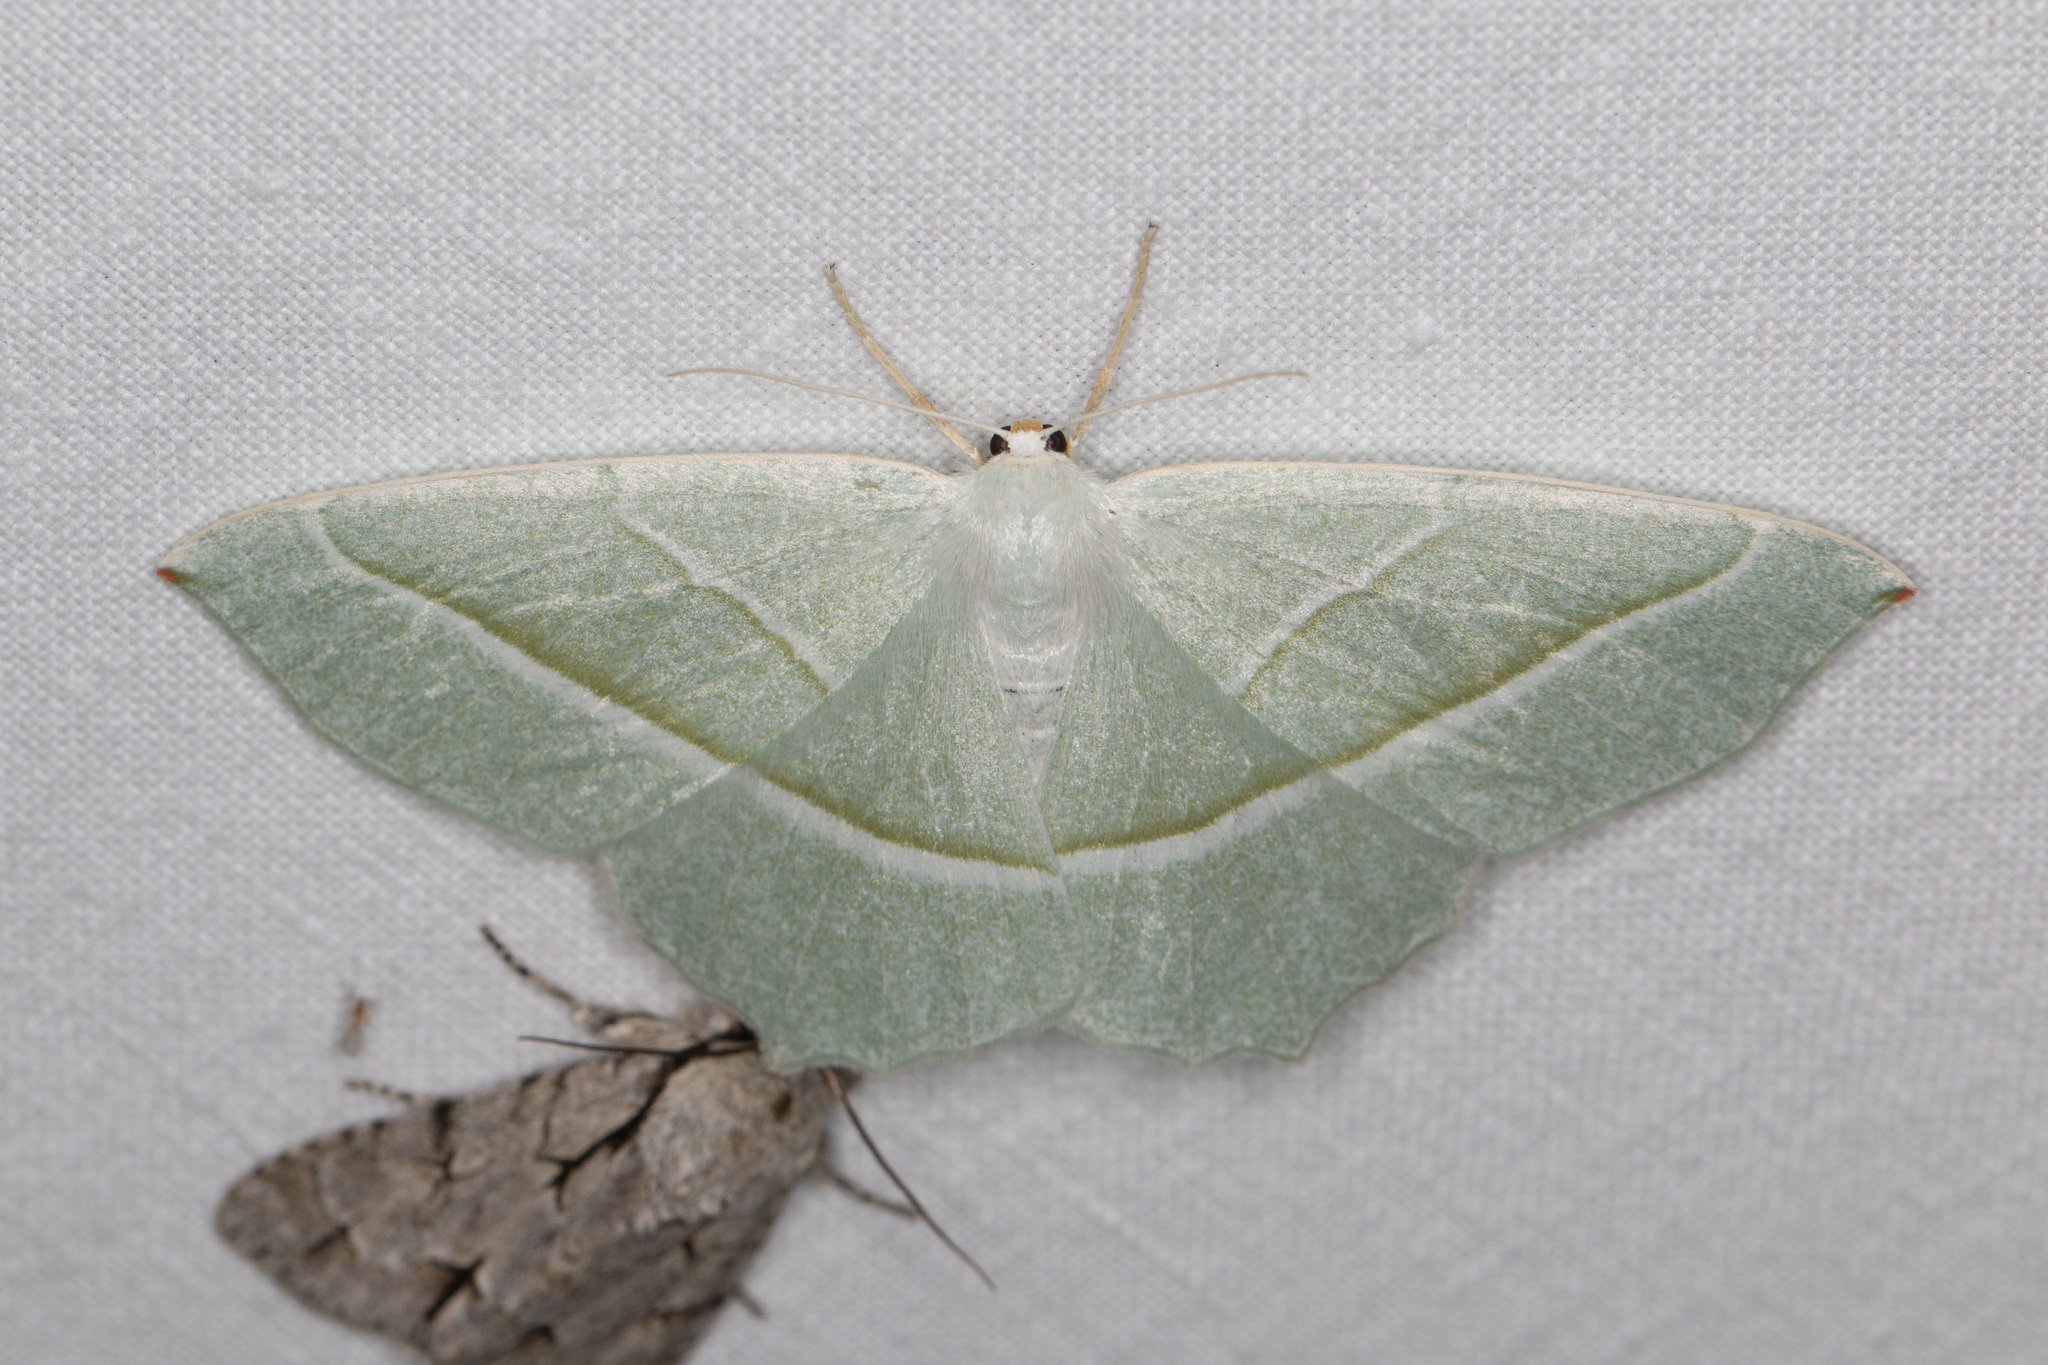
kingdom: Animalia
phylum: Arthropoda
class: Insecta
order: Lepidoptera
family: Geometridae
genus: Campaea
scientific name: Campaea margaritaria
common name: Light emerald
